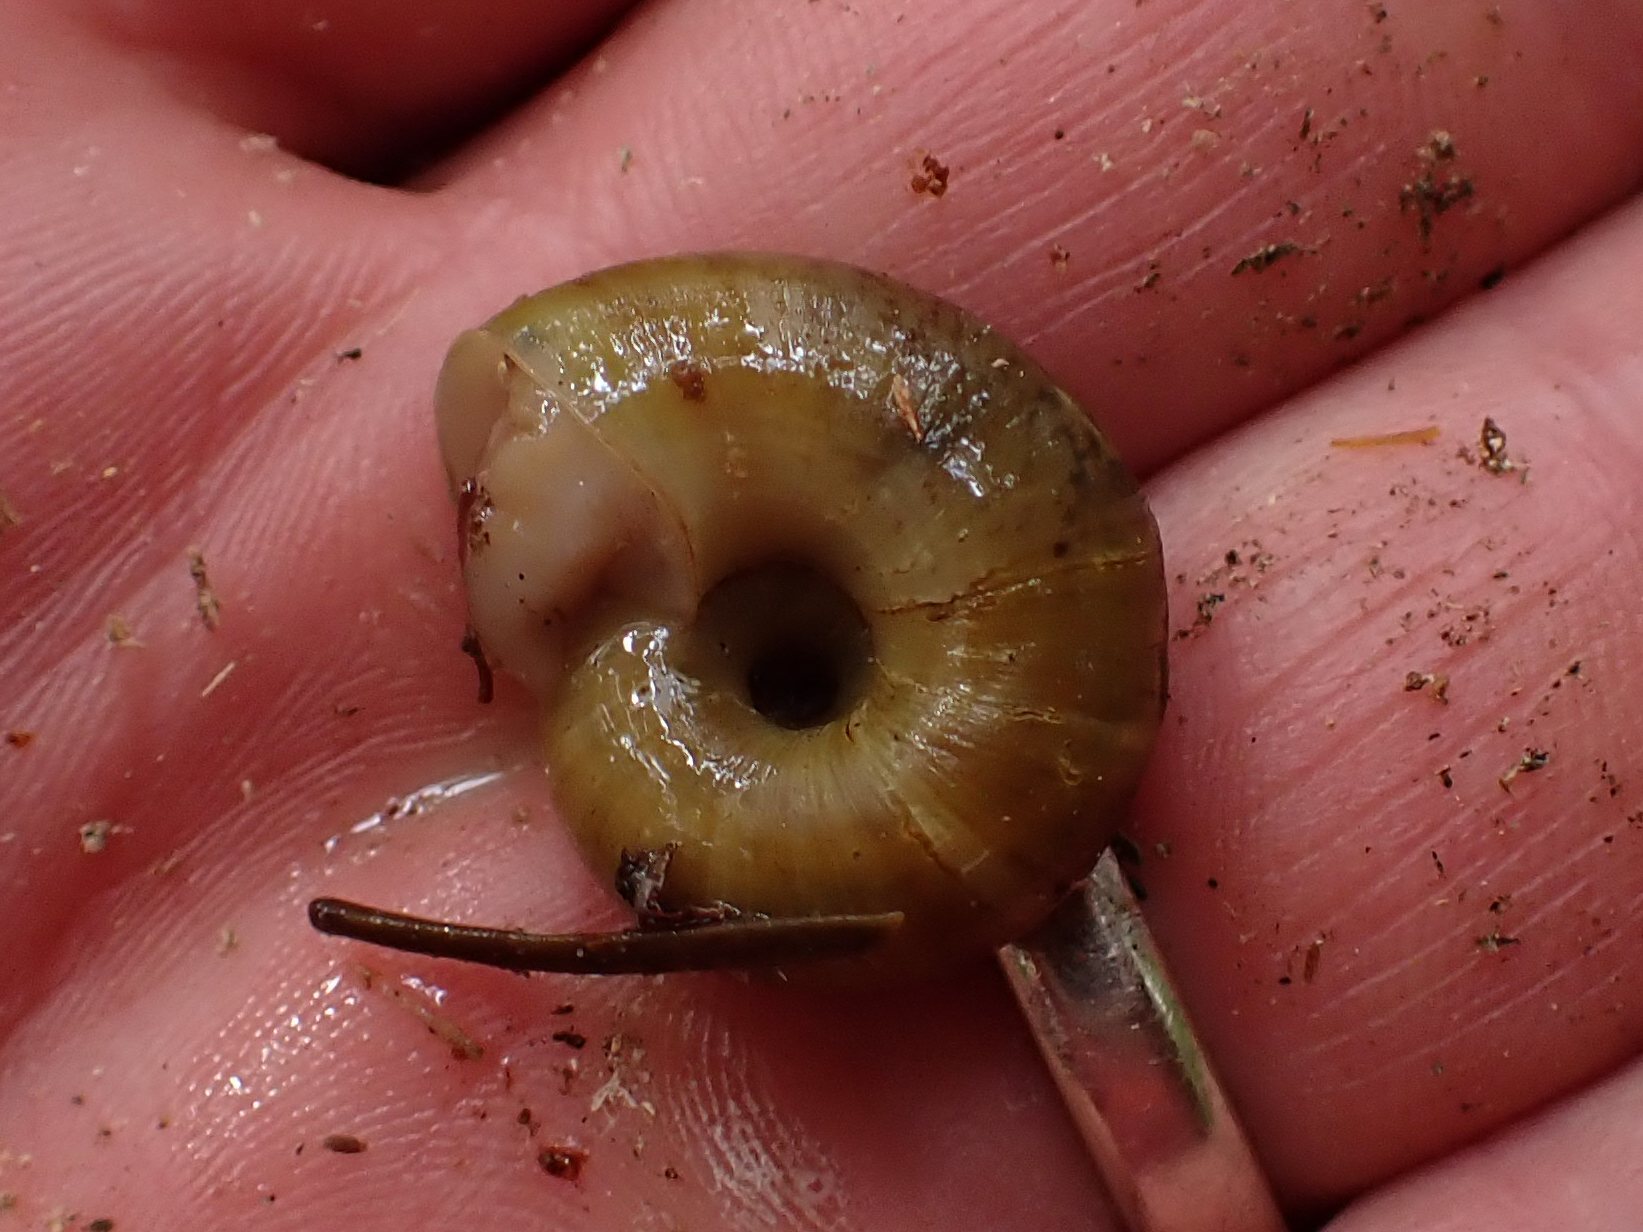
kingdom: Animalia
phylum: Mollusca
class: Gastropoda
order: Stylommatophora
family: Haplotrematidae
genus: Haplotrema
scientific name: Haplotrema vancouverense
